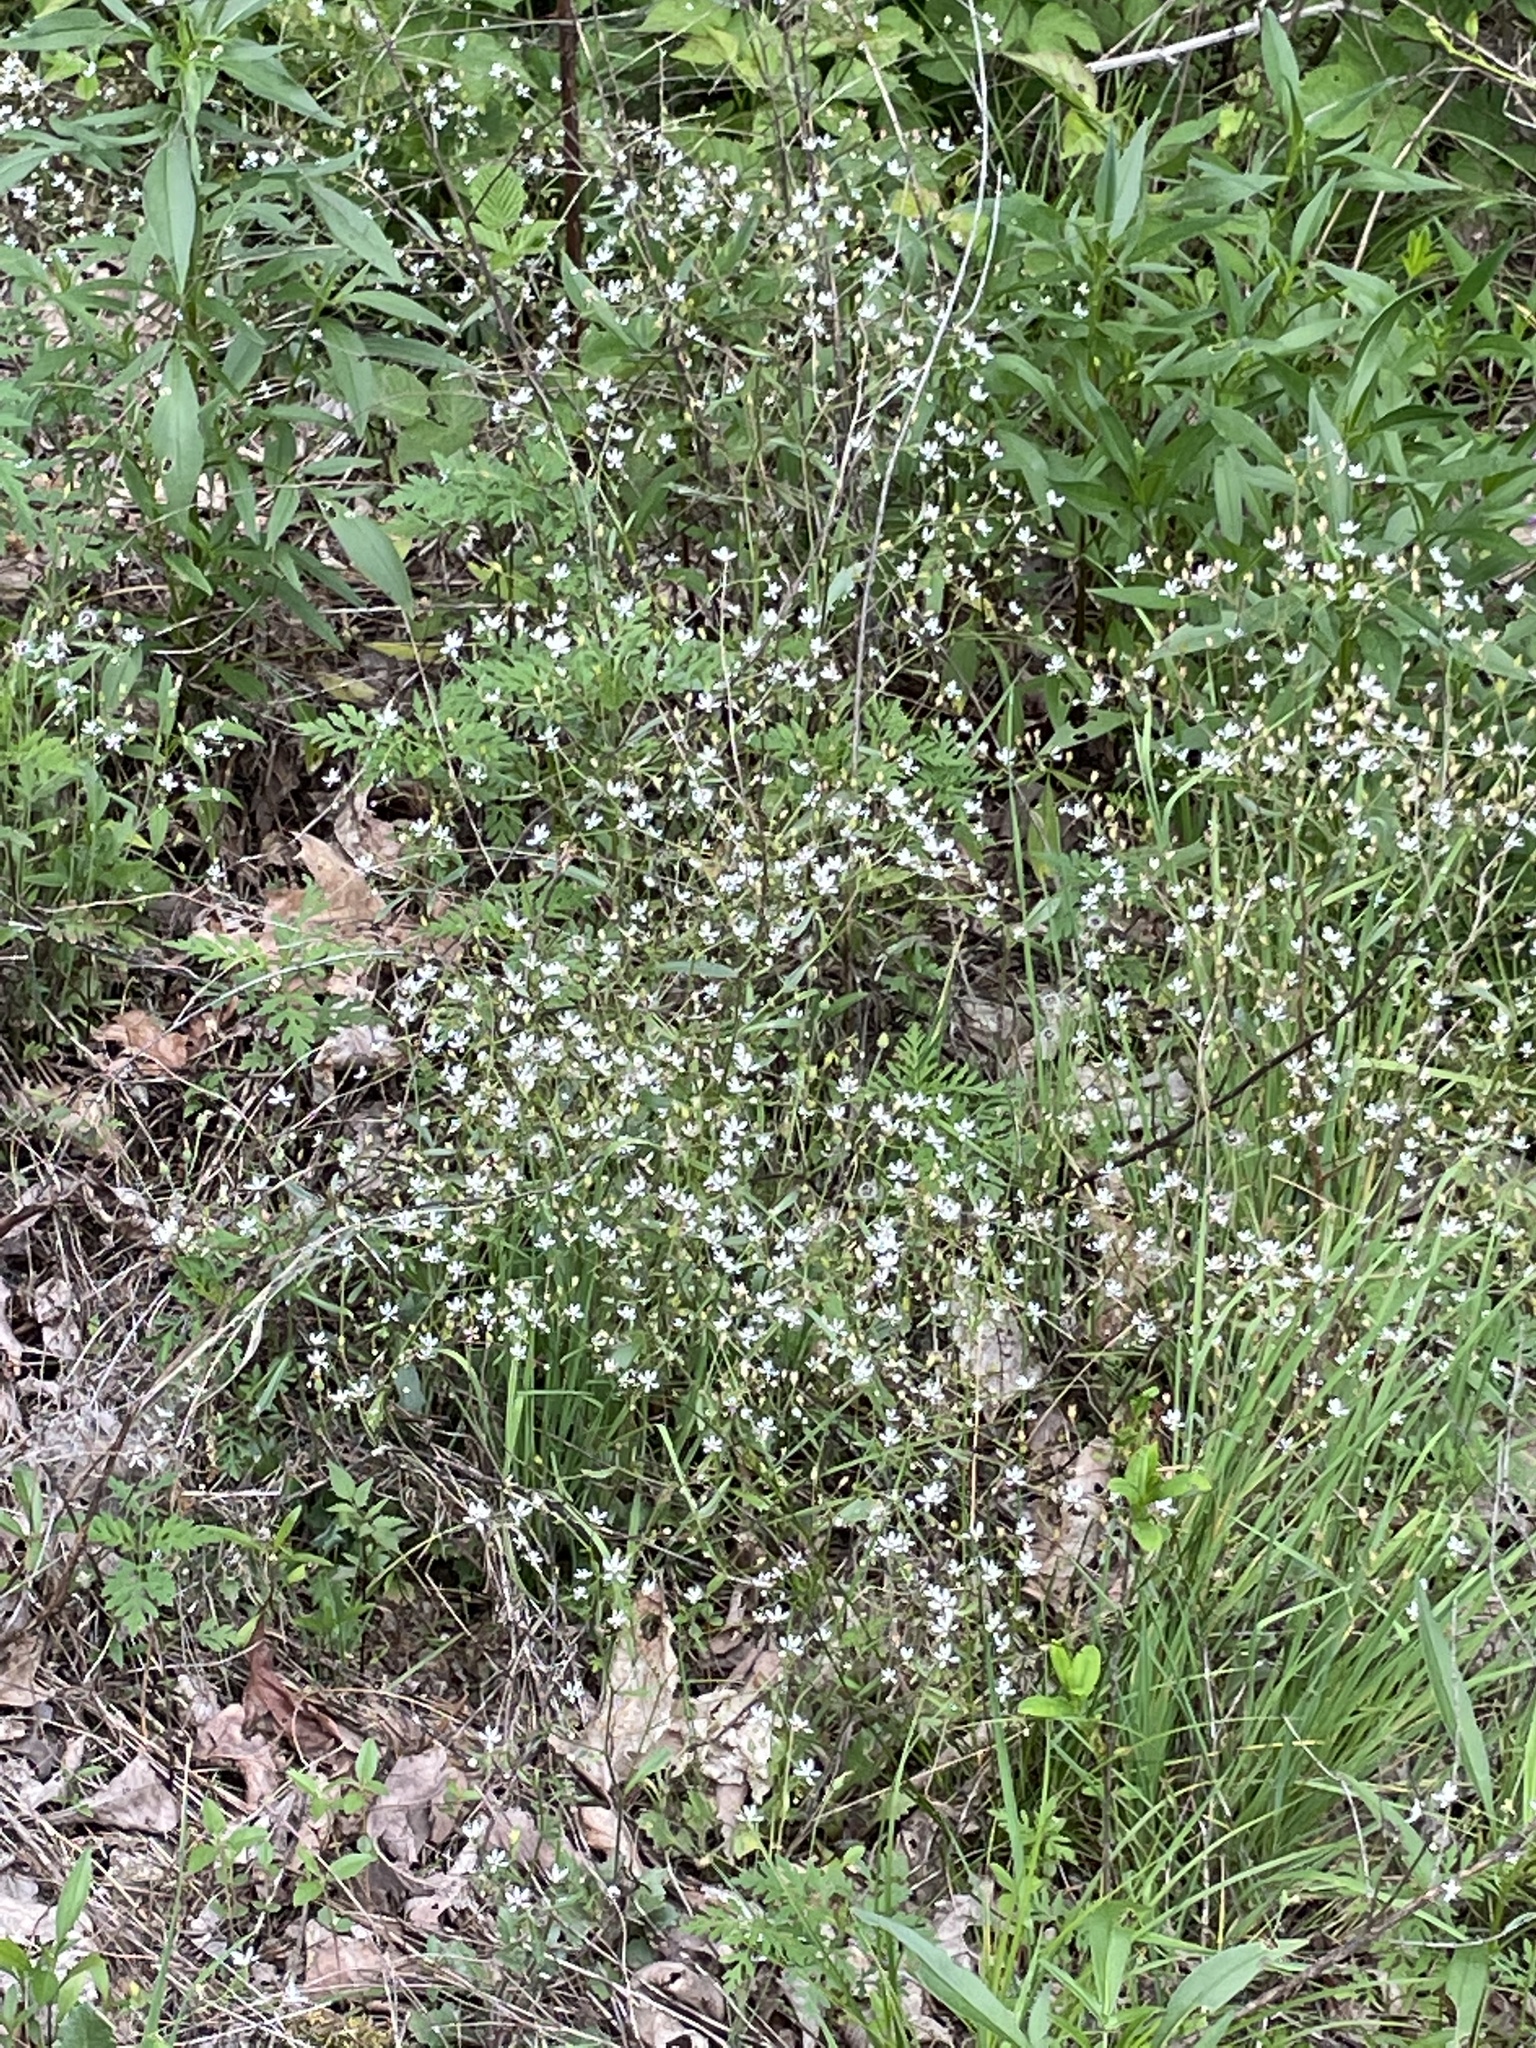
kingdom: Plantae
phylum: Tracheophyta
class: Magnoliopsida
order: Saxifragales
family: Saxifragaceae
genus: Micranthes
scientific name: Micranthes petiolaris
